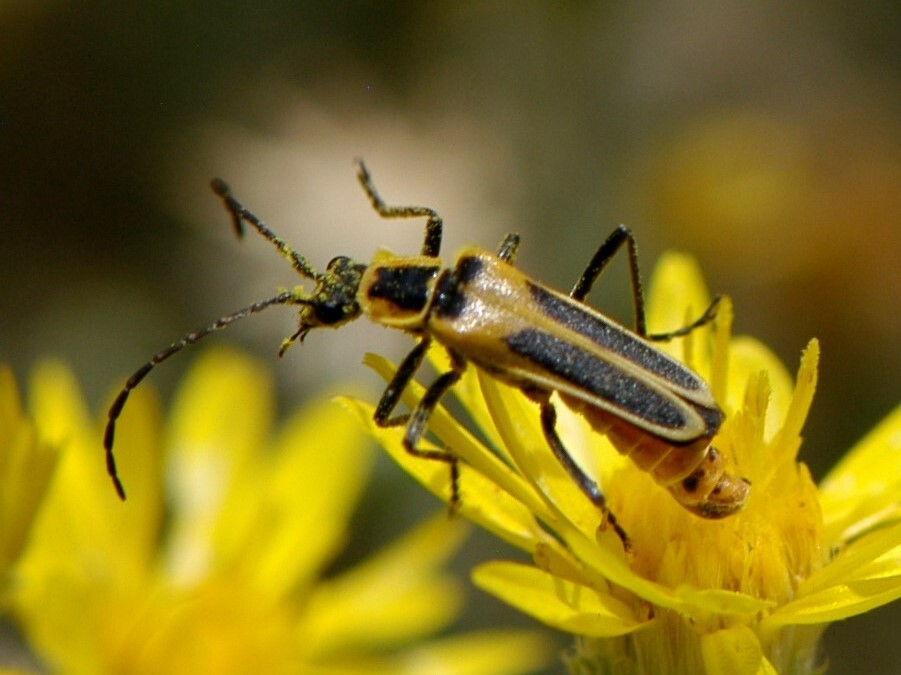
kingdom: Animalia
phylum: Arthropoda
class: Insecta
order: Coleoptera
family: Cantharidae
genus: Chauliognathus
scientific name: Chauliognathus lewisi
